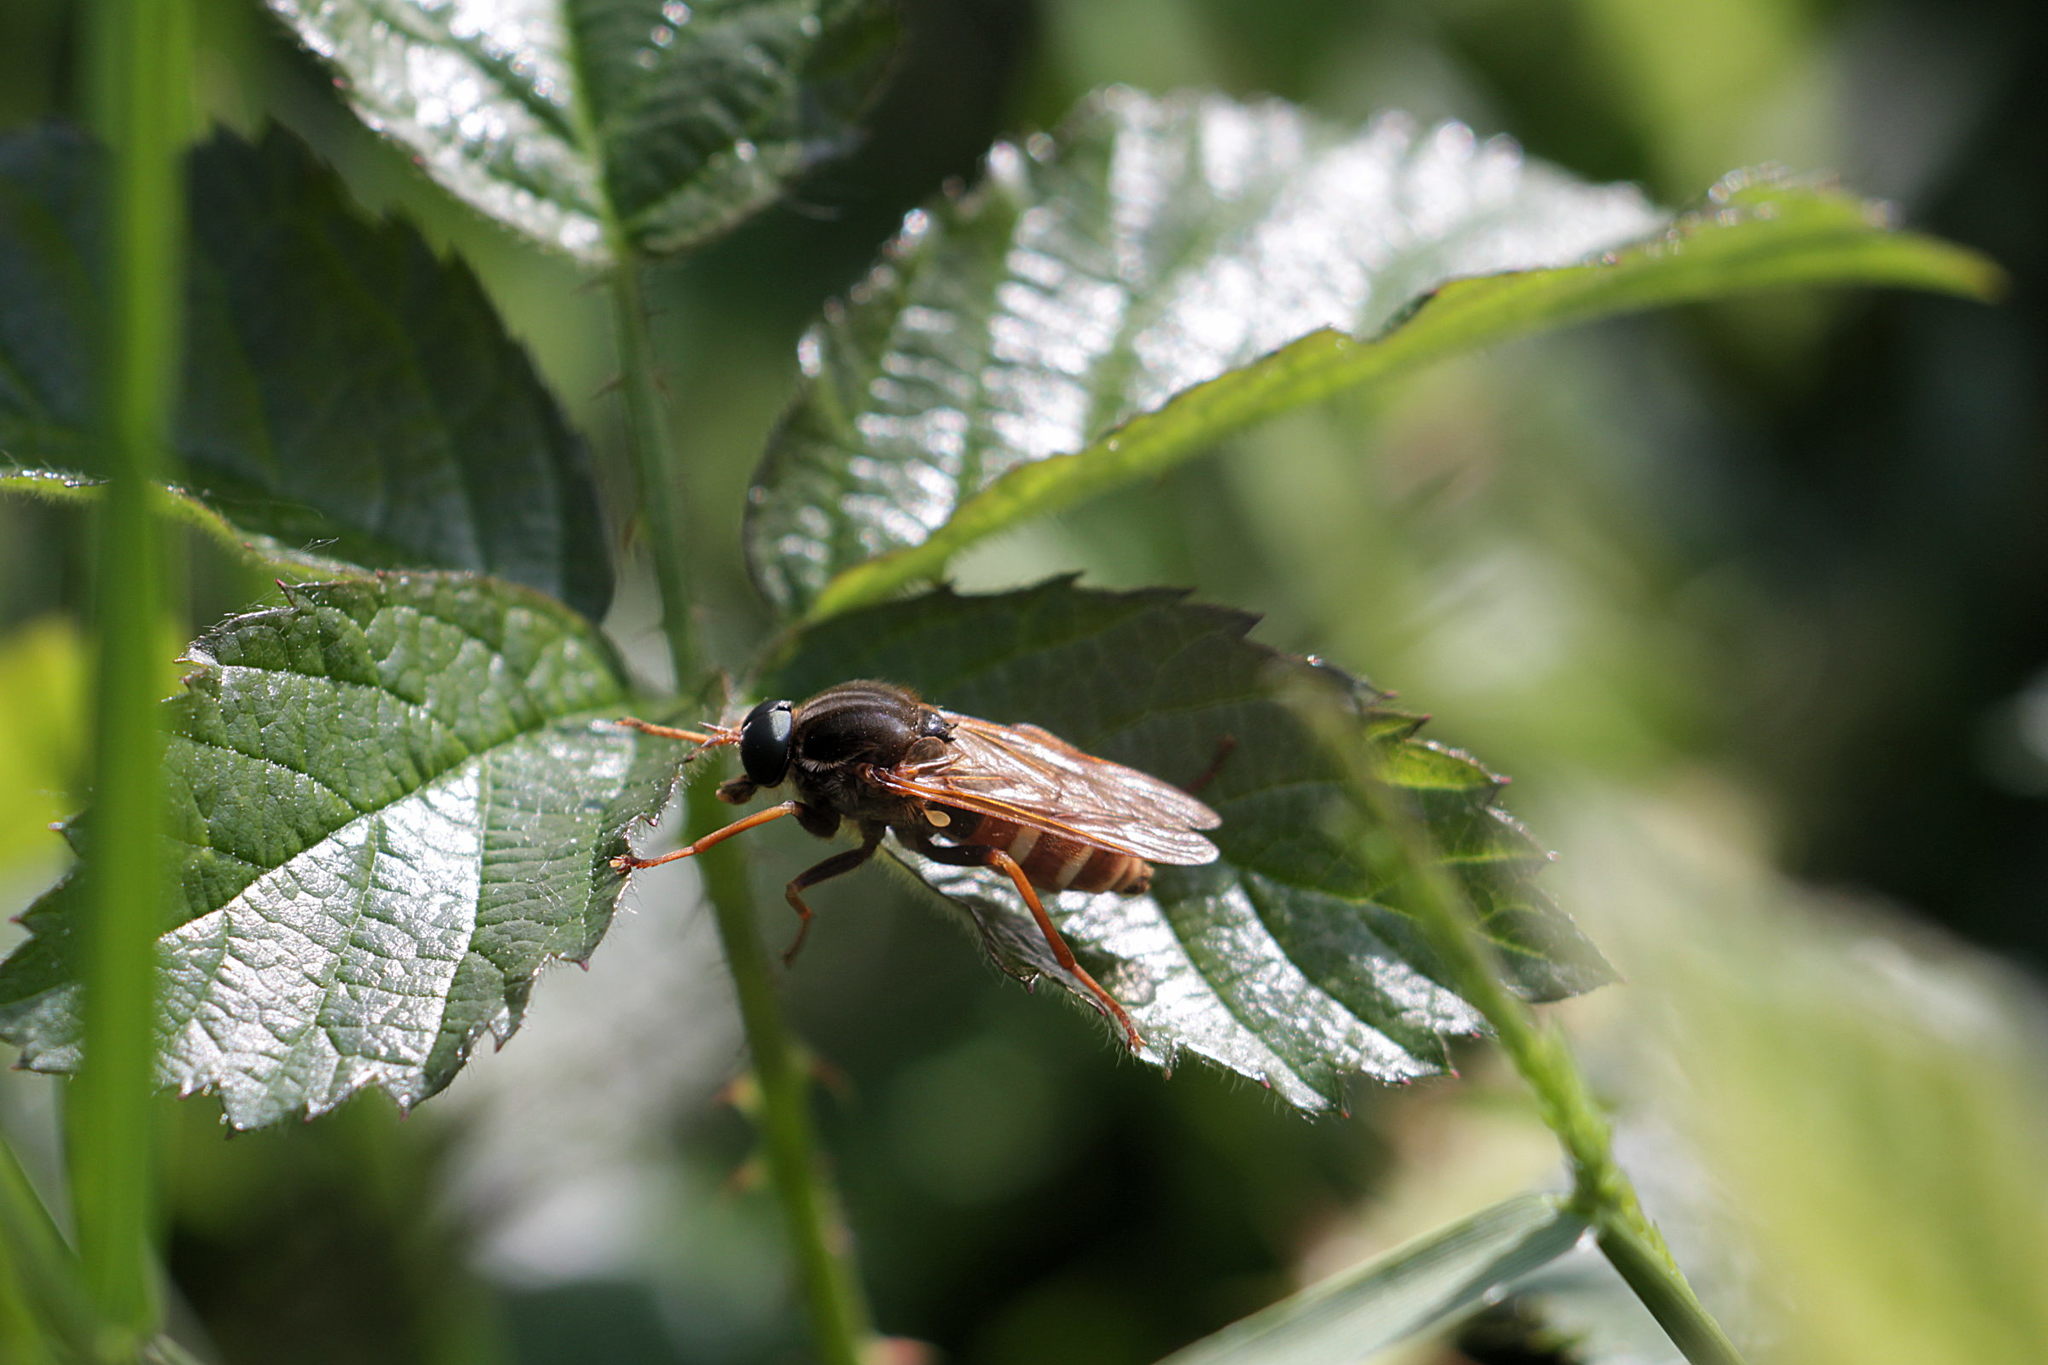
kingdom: Animalia
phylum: Arthropoda
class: Insecta
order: Diptera
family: Xylophagidae
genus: Coenomyia
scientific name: Coenomyia ferruginea
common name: Stink fly
